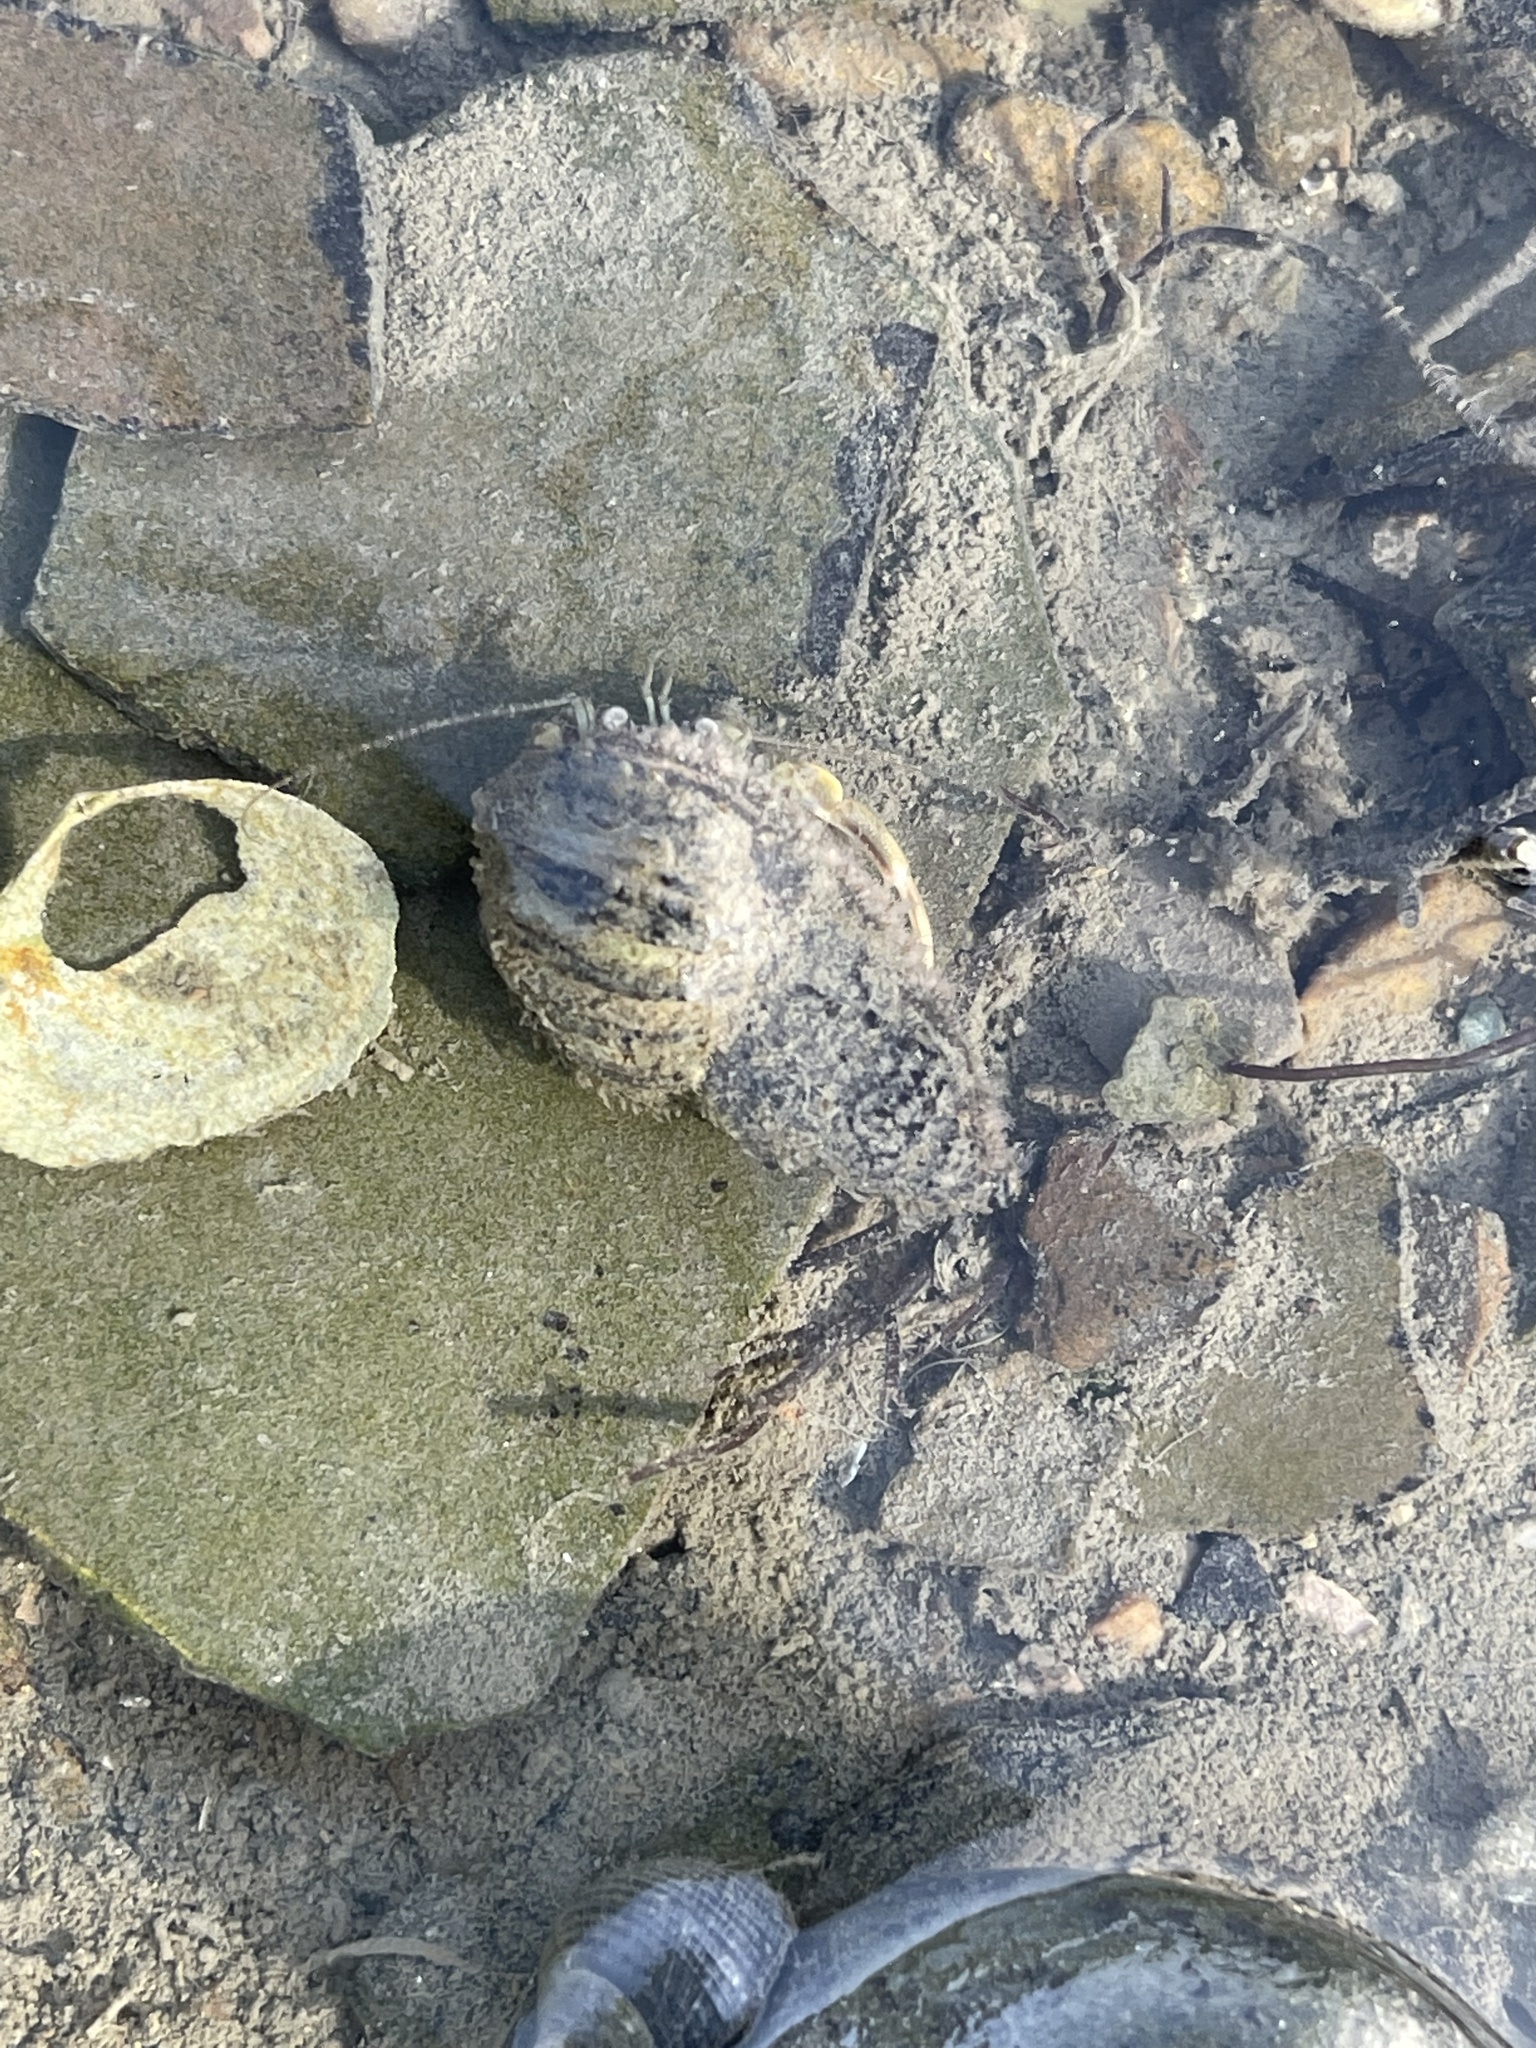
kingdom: Animalia
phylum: Arthropoda
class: Malacostraca
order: Decapoda
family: Paguridae
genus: Pagurus
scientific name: Pagurus longicarpus
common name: Long-armed hermit crab
